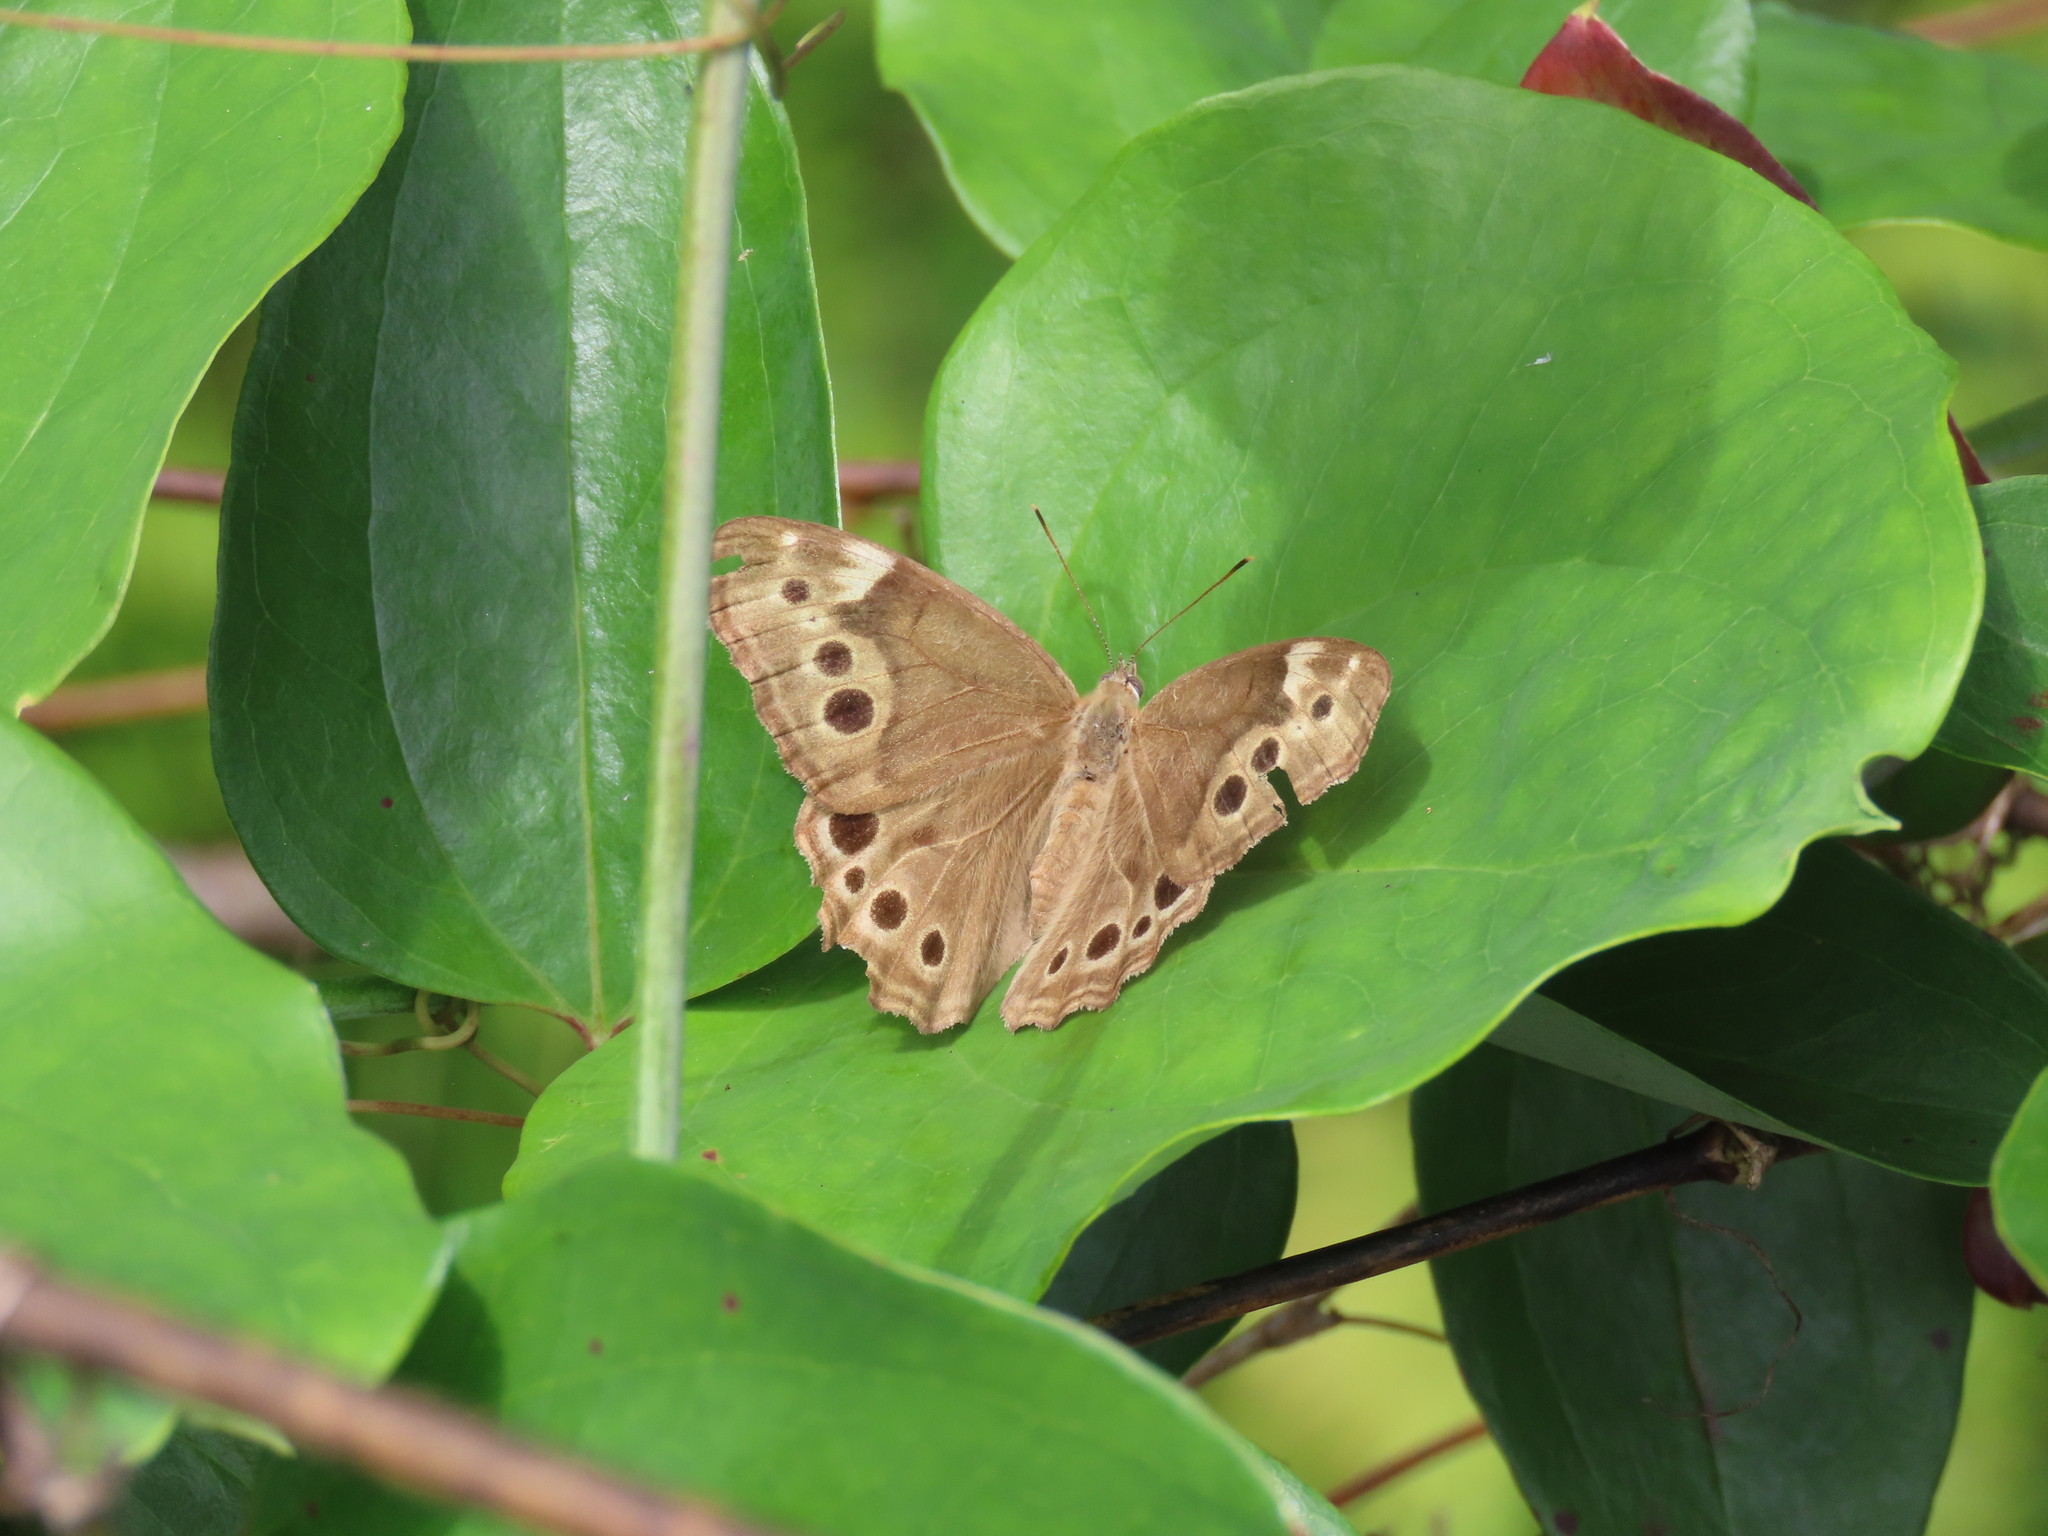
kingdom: Animalia
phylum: Arthropoda
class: Insecta
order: Lepidoptera
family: Nymphalidae
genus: Lethe
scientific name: Lethe anthedon
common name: Northern pearly-eye
